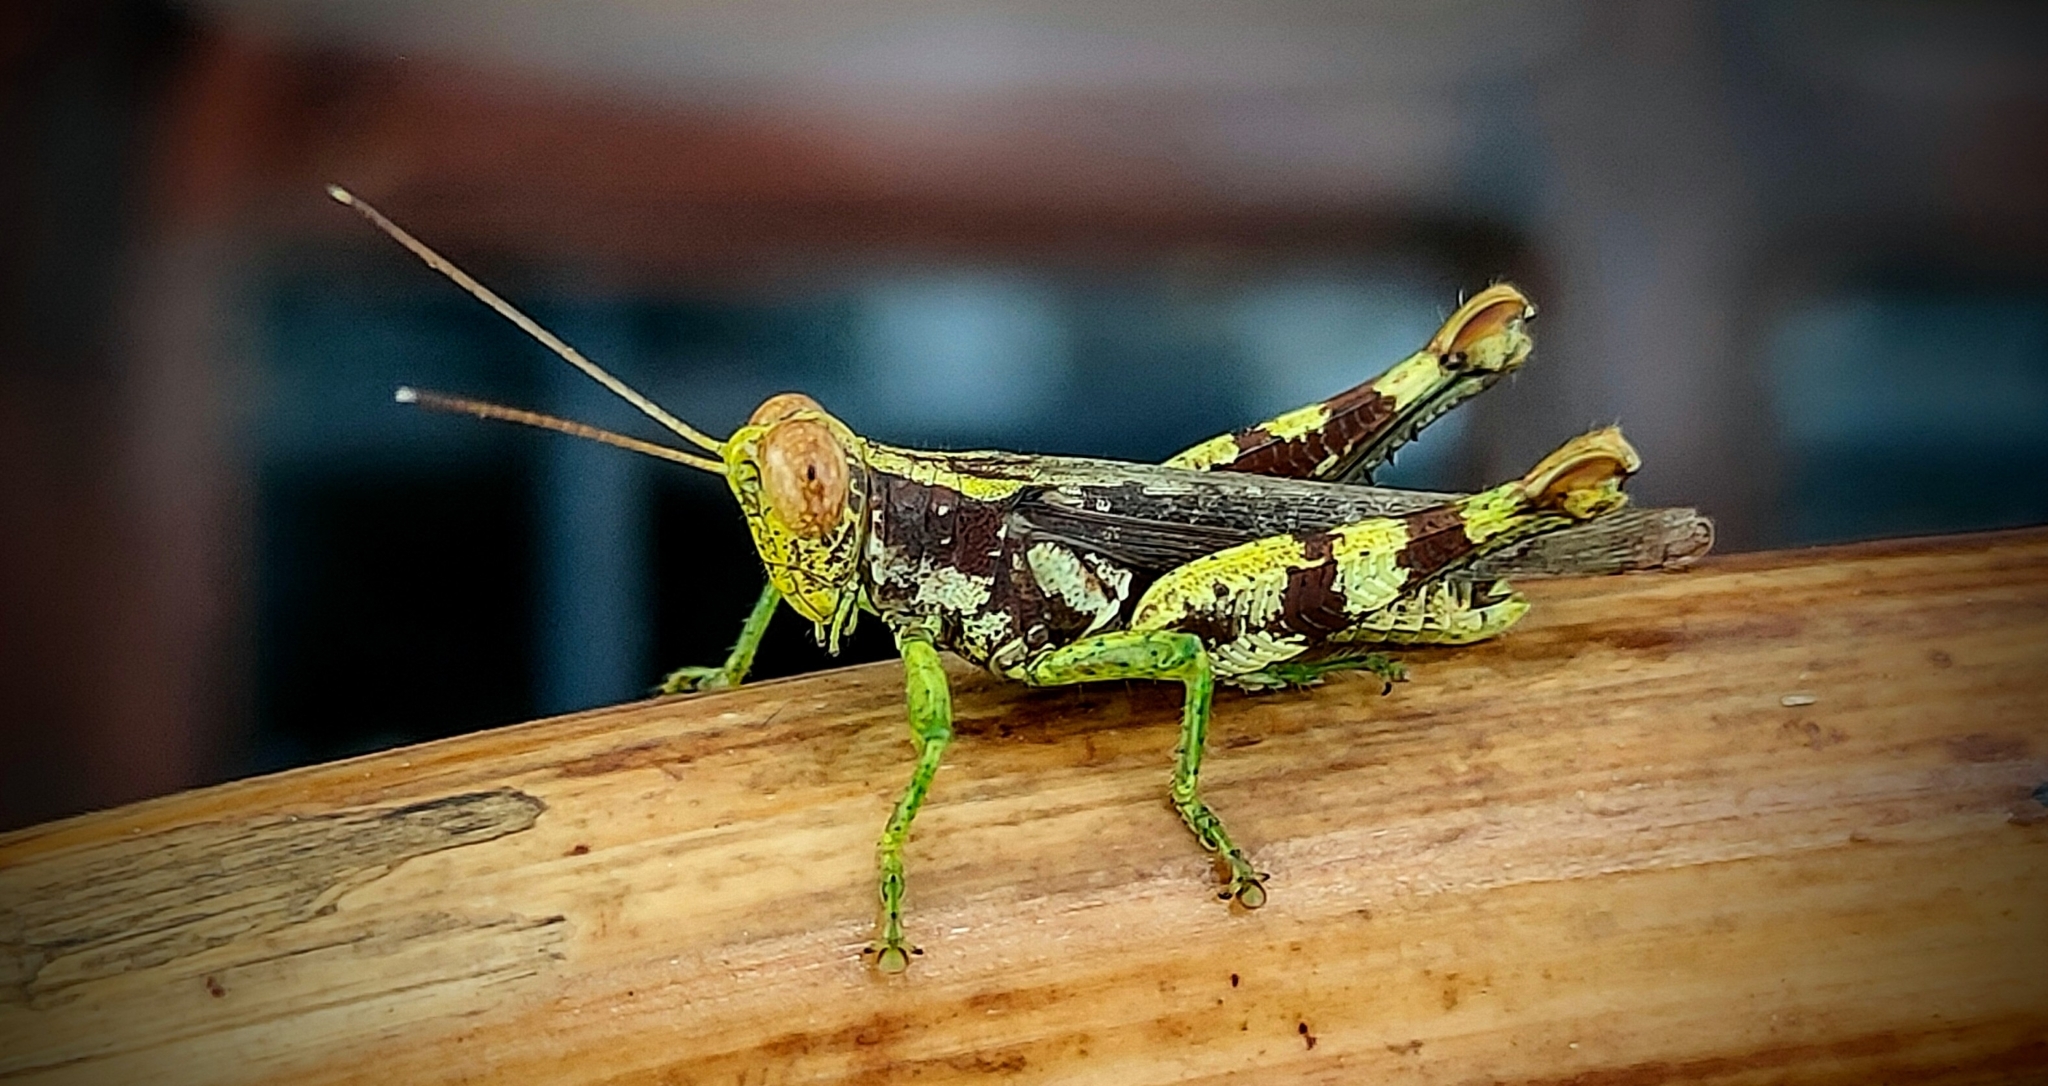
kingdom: Animalia
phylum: Arthropoda
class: Insecta
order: Orthoptera
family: Acrididae
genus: Pirithoicus
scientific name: Pirithoicus ophthalmicus
